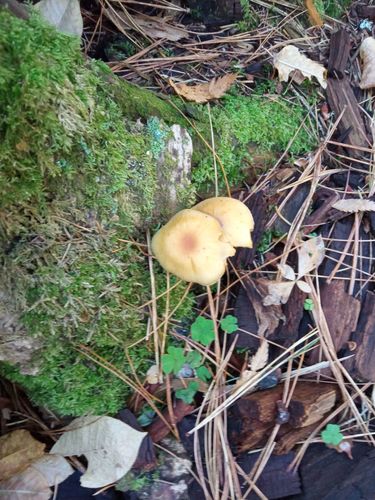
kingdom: Fungi
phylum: Basidiomycota
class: Agaricomycetes
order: Agaricales
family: Strophariaceae
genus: Hypholoma
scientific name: Hypholoma capnoides
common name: Conifer tuft
